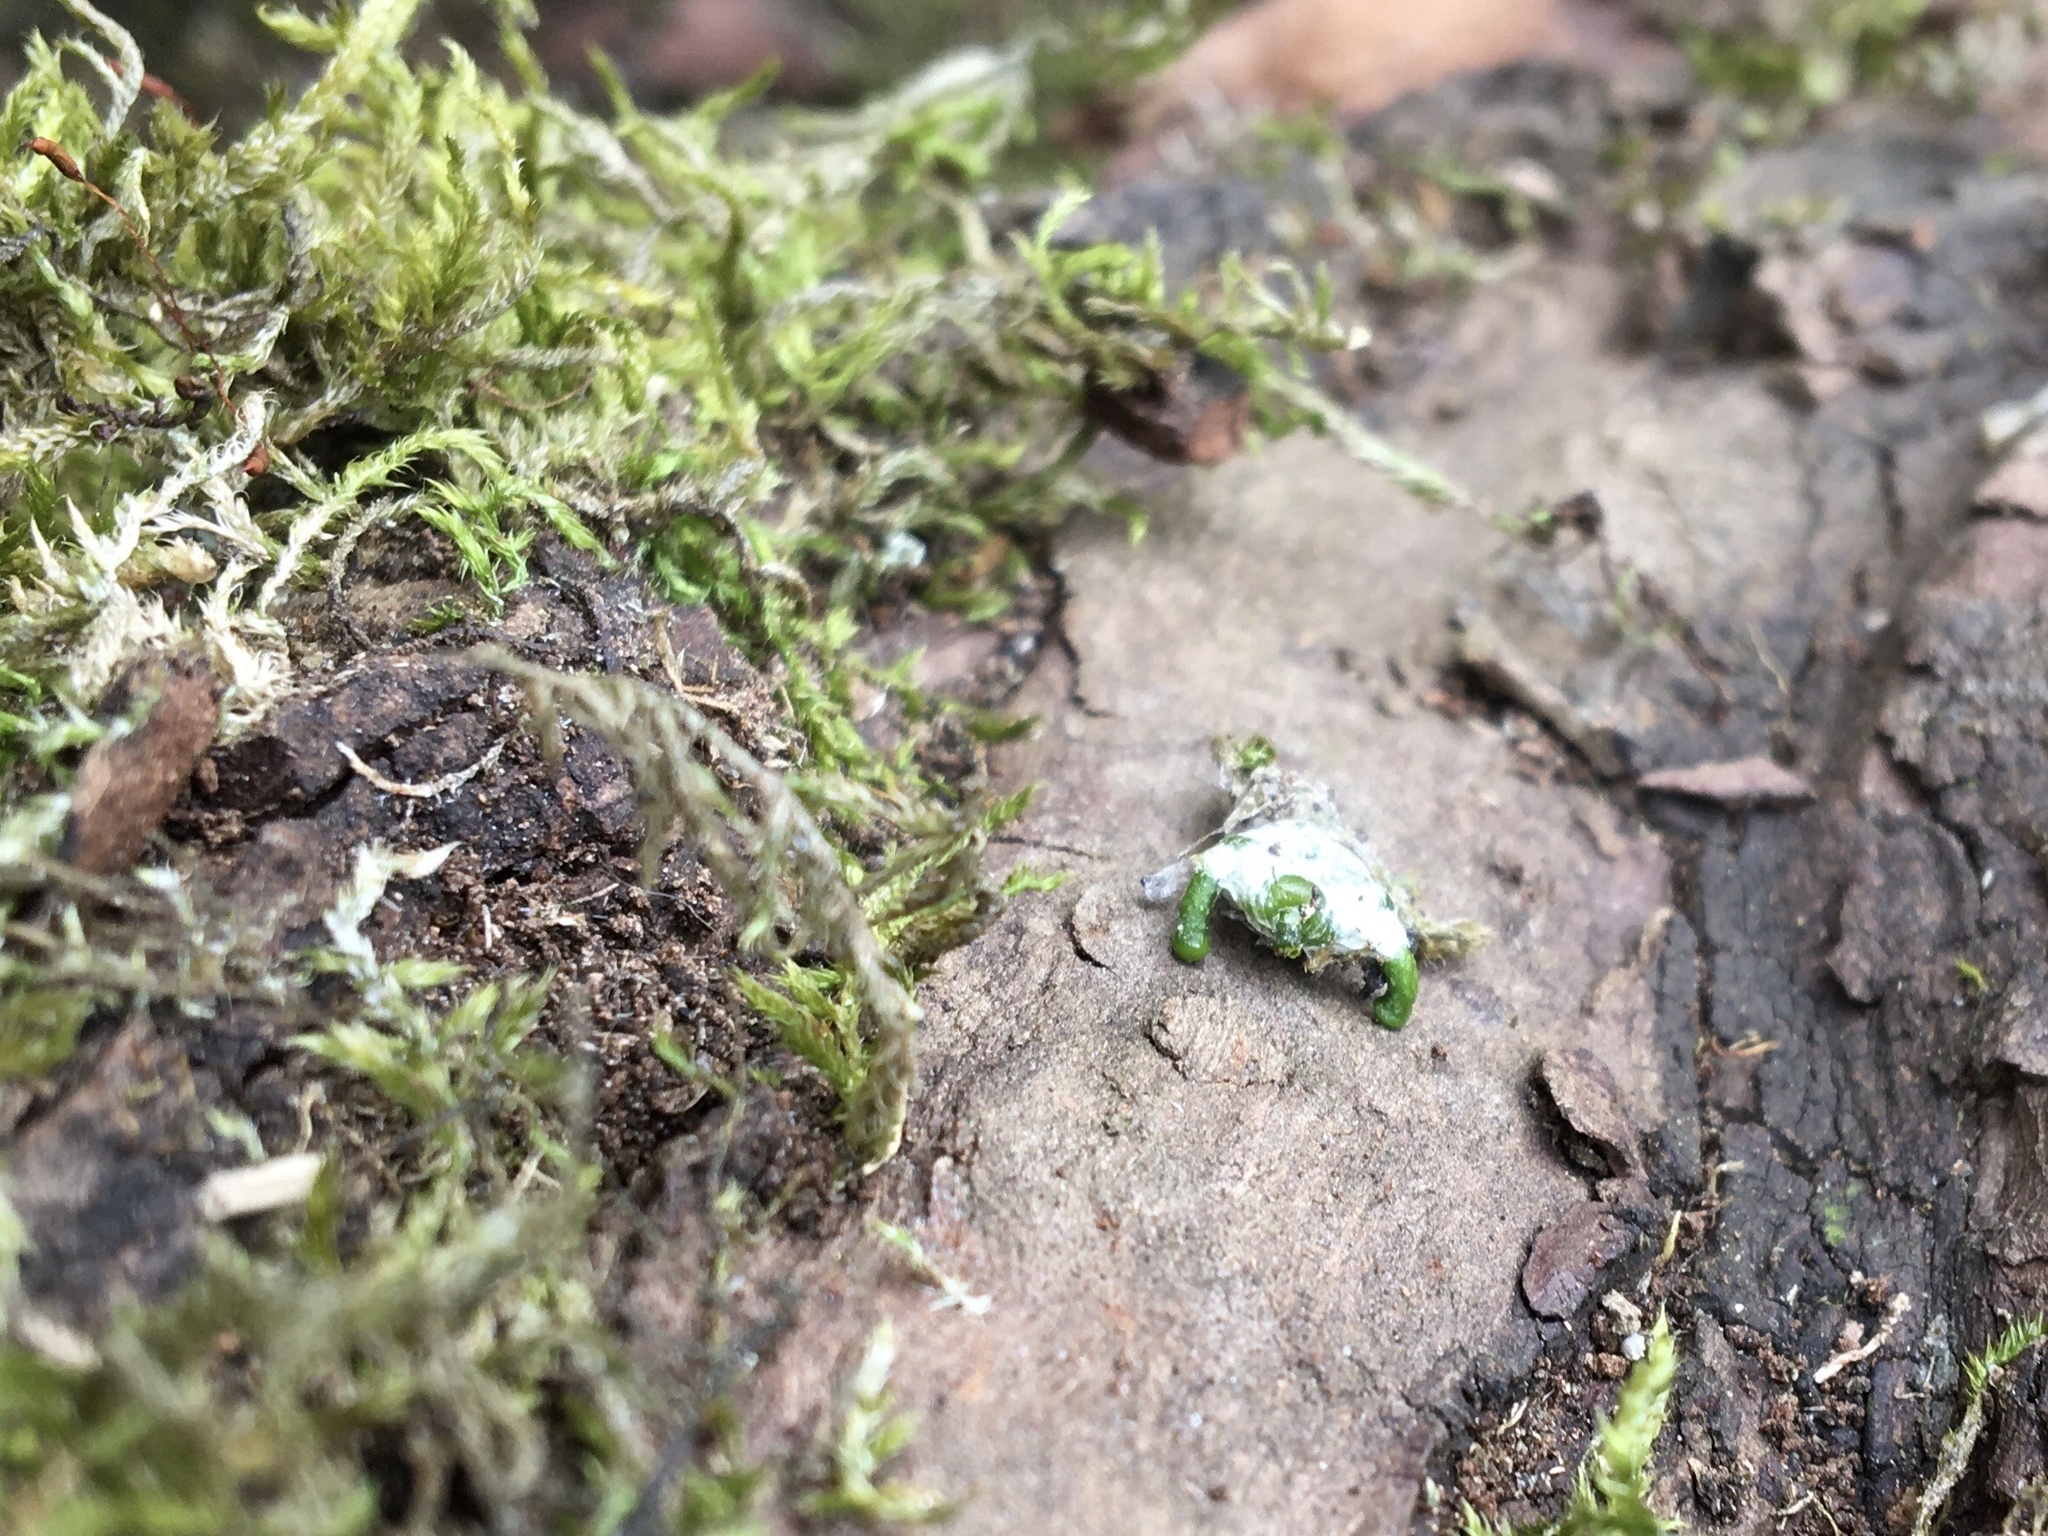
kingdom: Plantae
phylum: Tracheophyta
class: Magnoliopsida
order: Santalales
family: Viscaceae
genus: Viscum
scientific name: Viscum album
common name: Mistletoe
